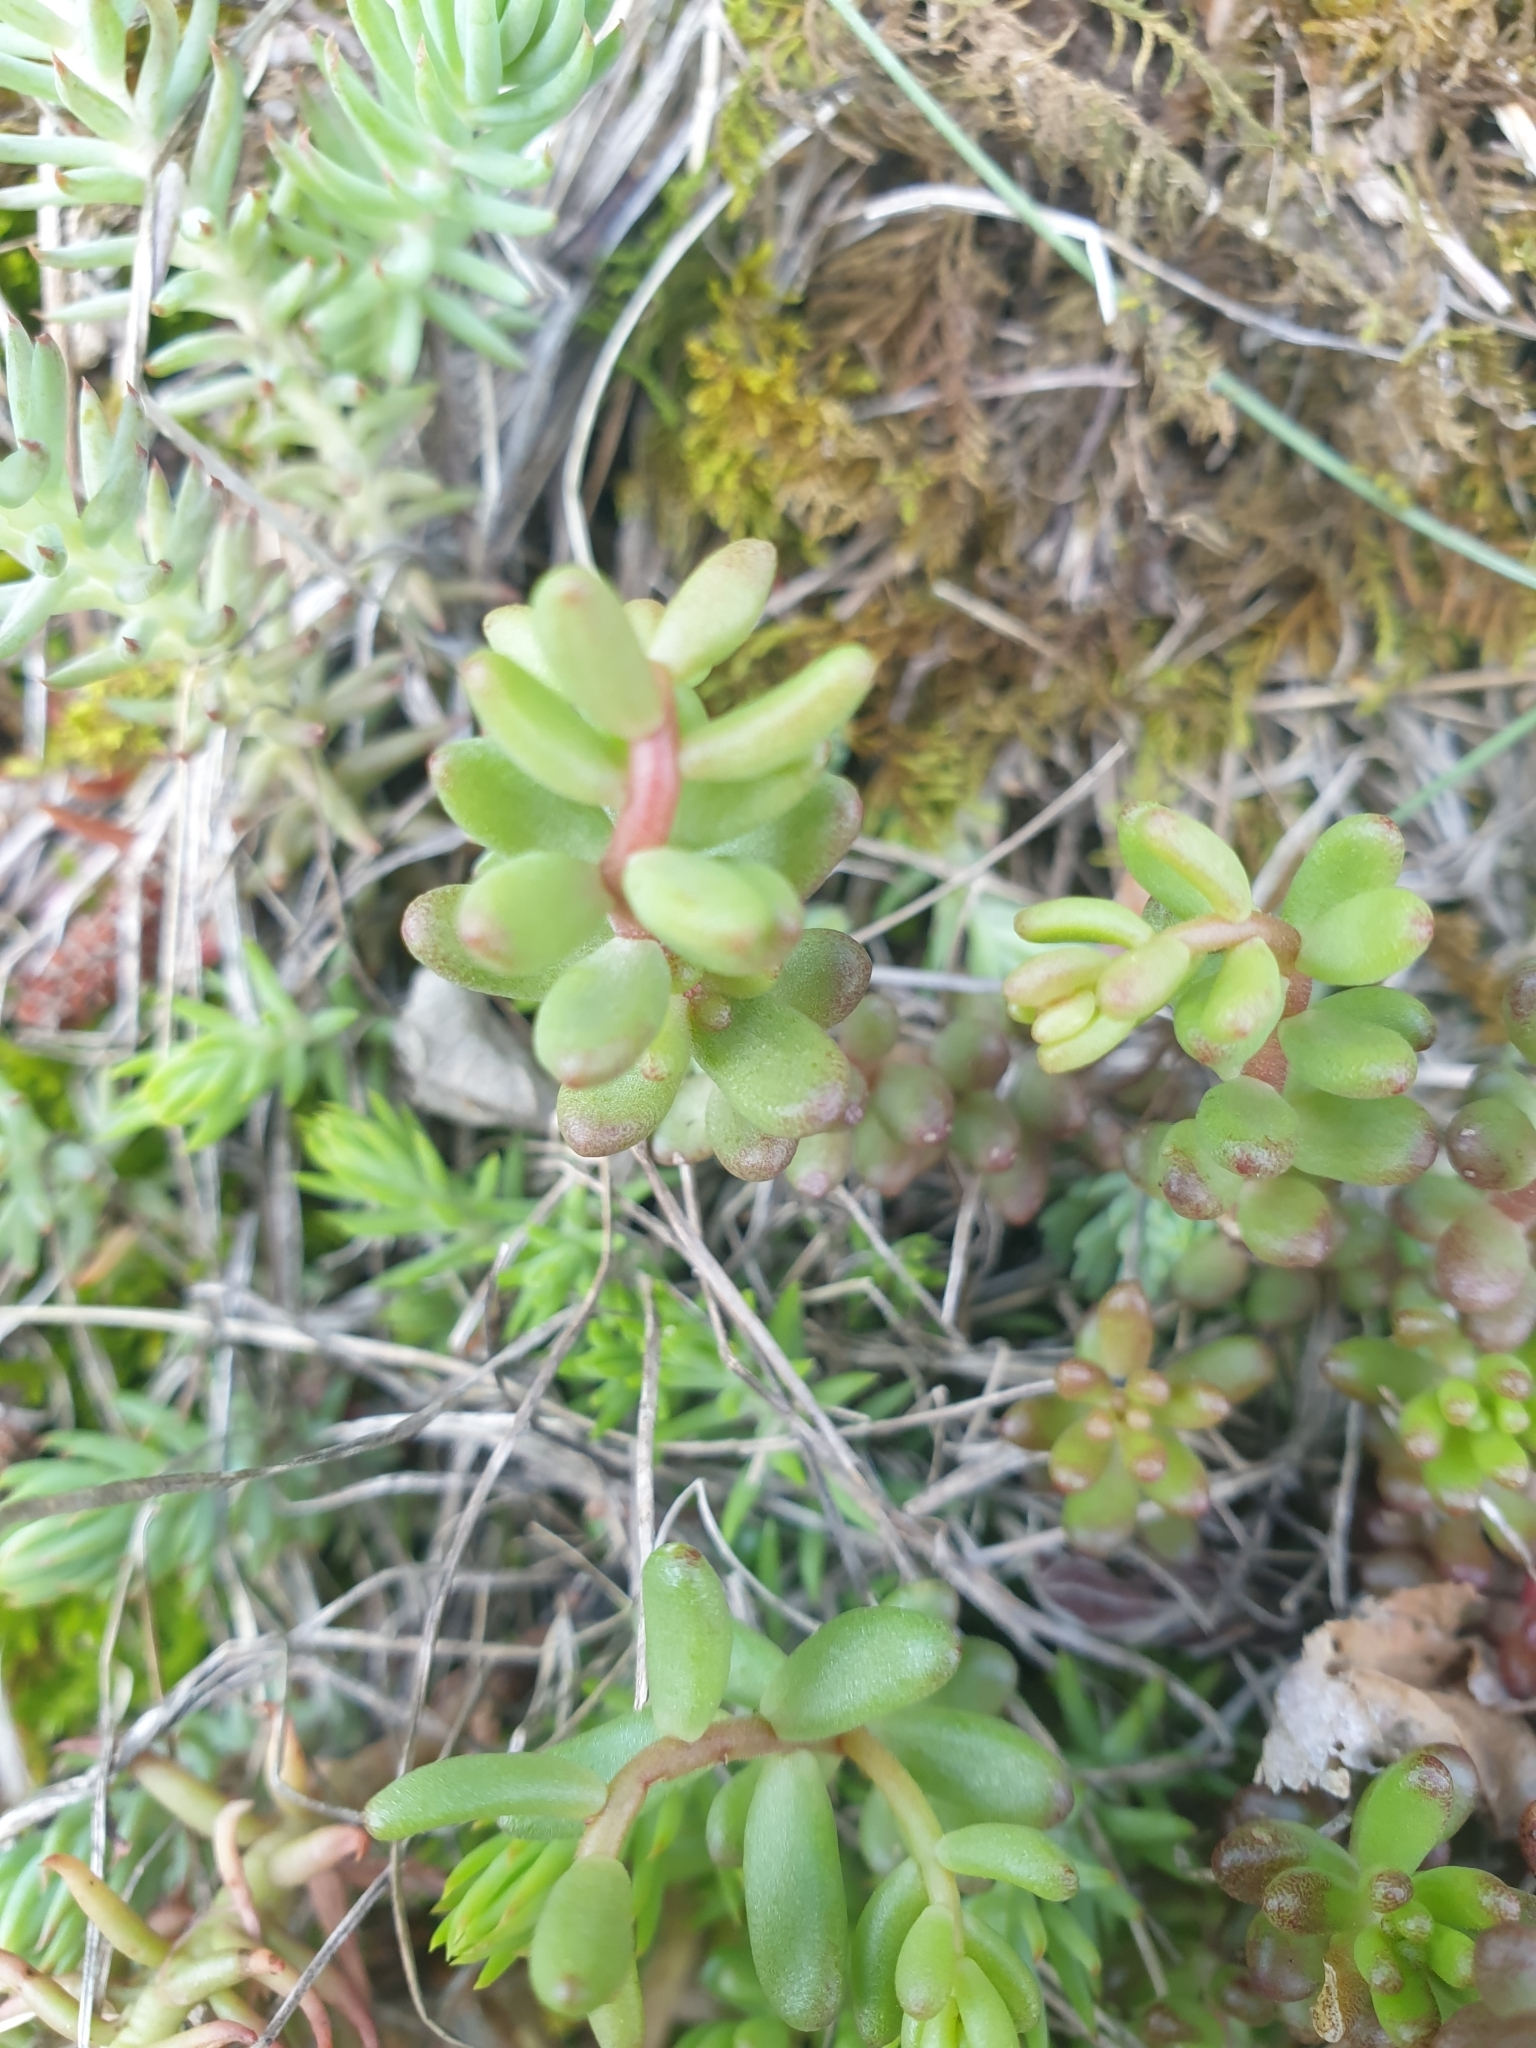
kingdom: Plantae
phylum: Tracheophyta
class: Magnoliopsida
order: Saxifragales
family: Crassulaceae
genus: Sedum
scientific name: Sedum album
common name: White stonecrop
